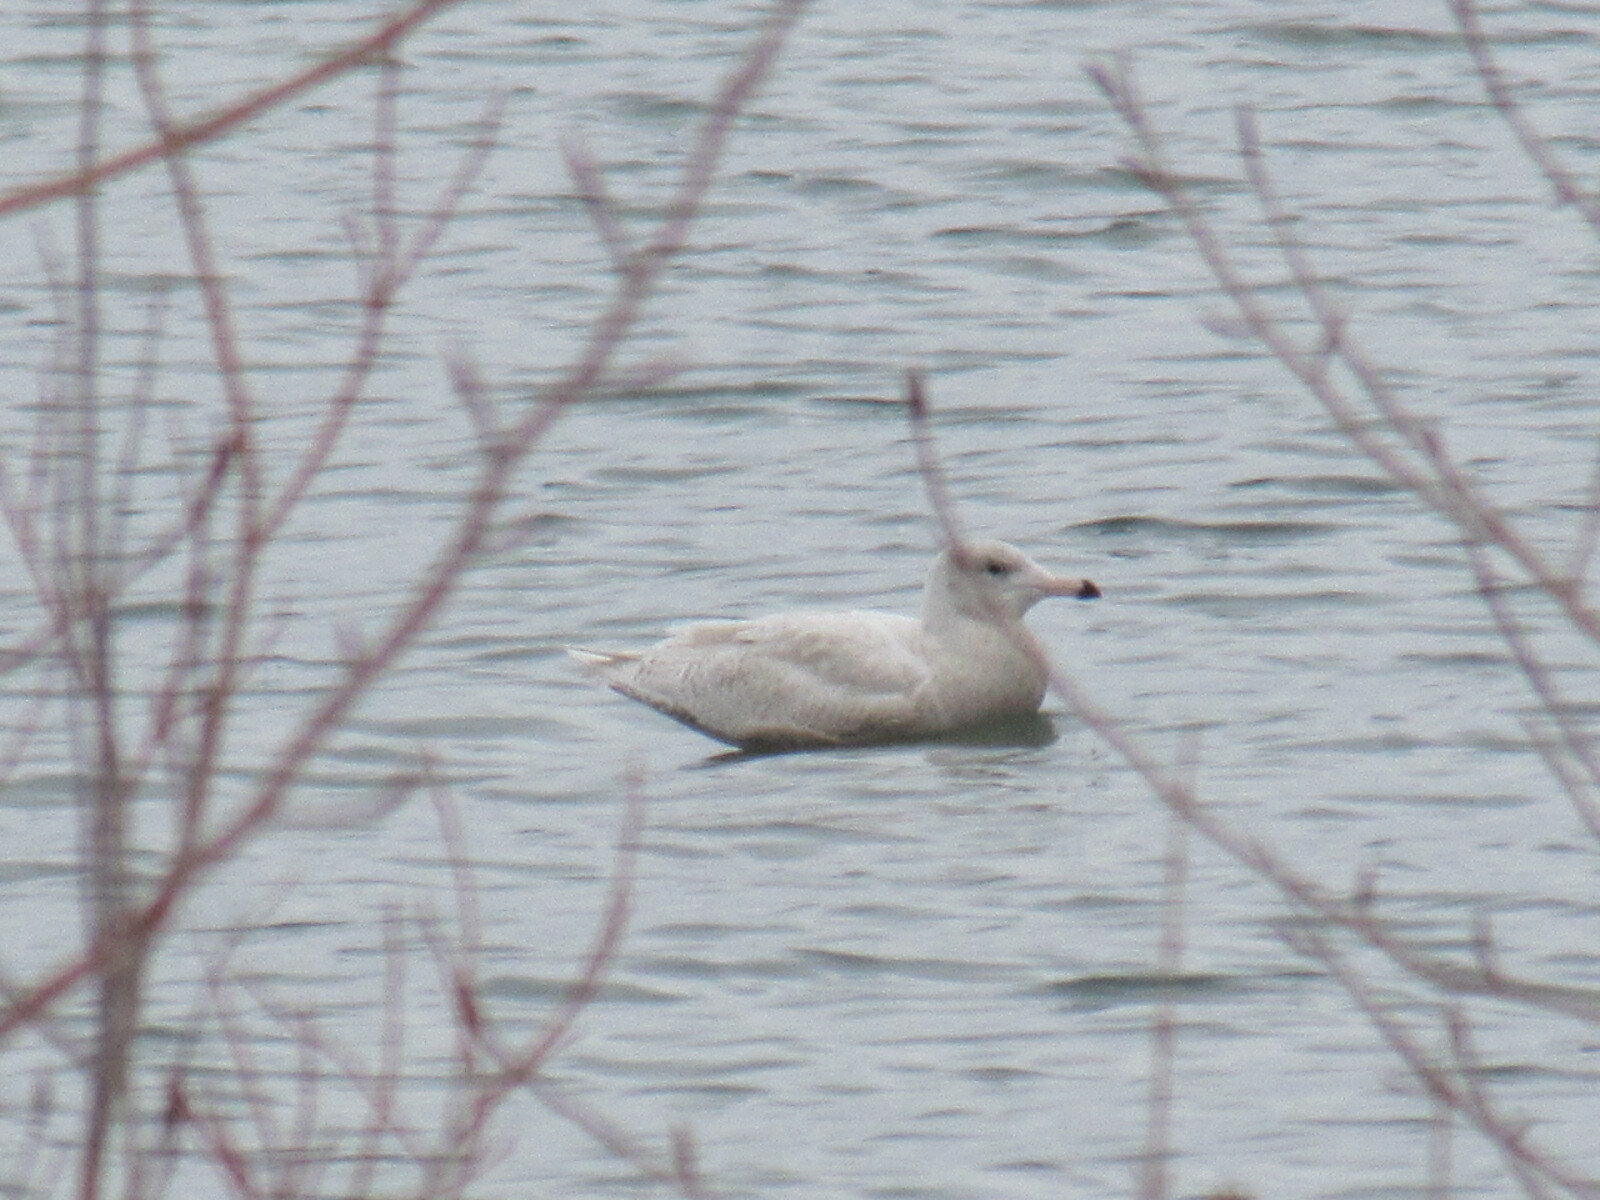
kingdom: Animalia
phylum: Chordata
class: Aves
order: Charadriiformes
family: Laridae
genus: Larus
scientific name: Larus hyperboreus
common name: Glaucous gull
